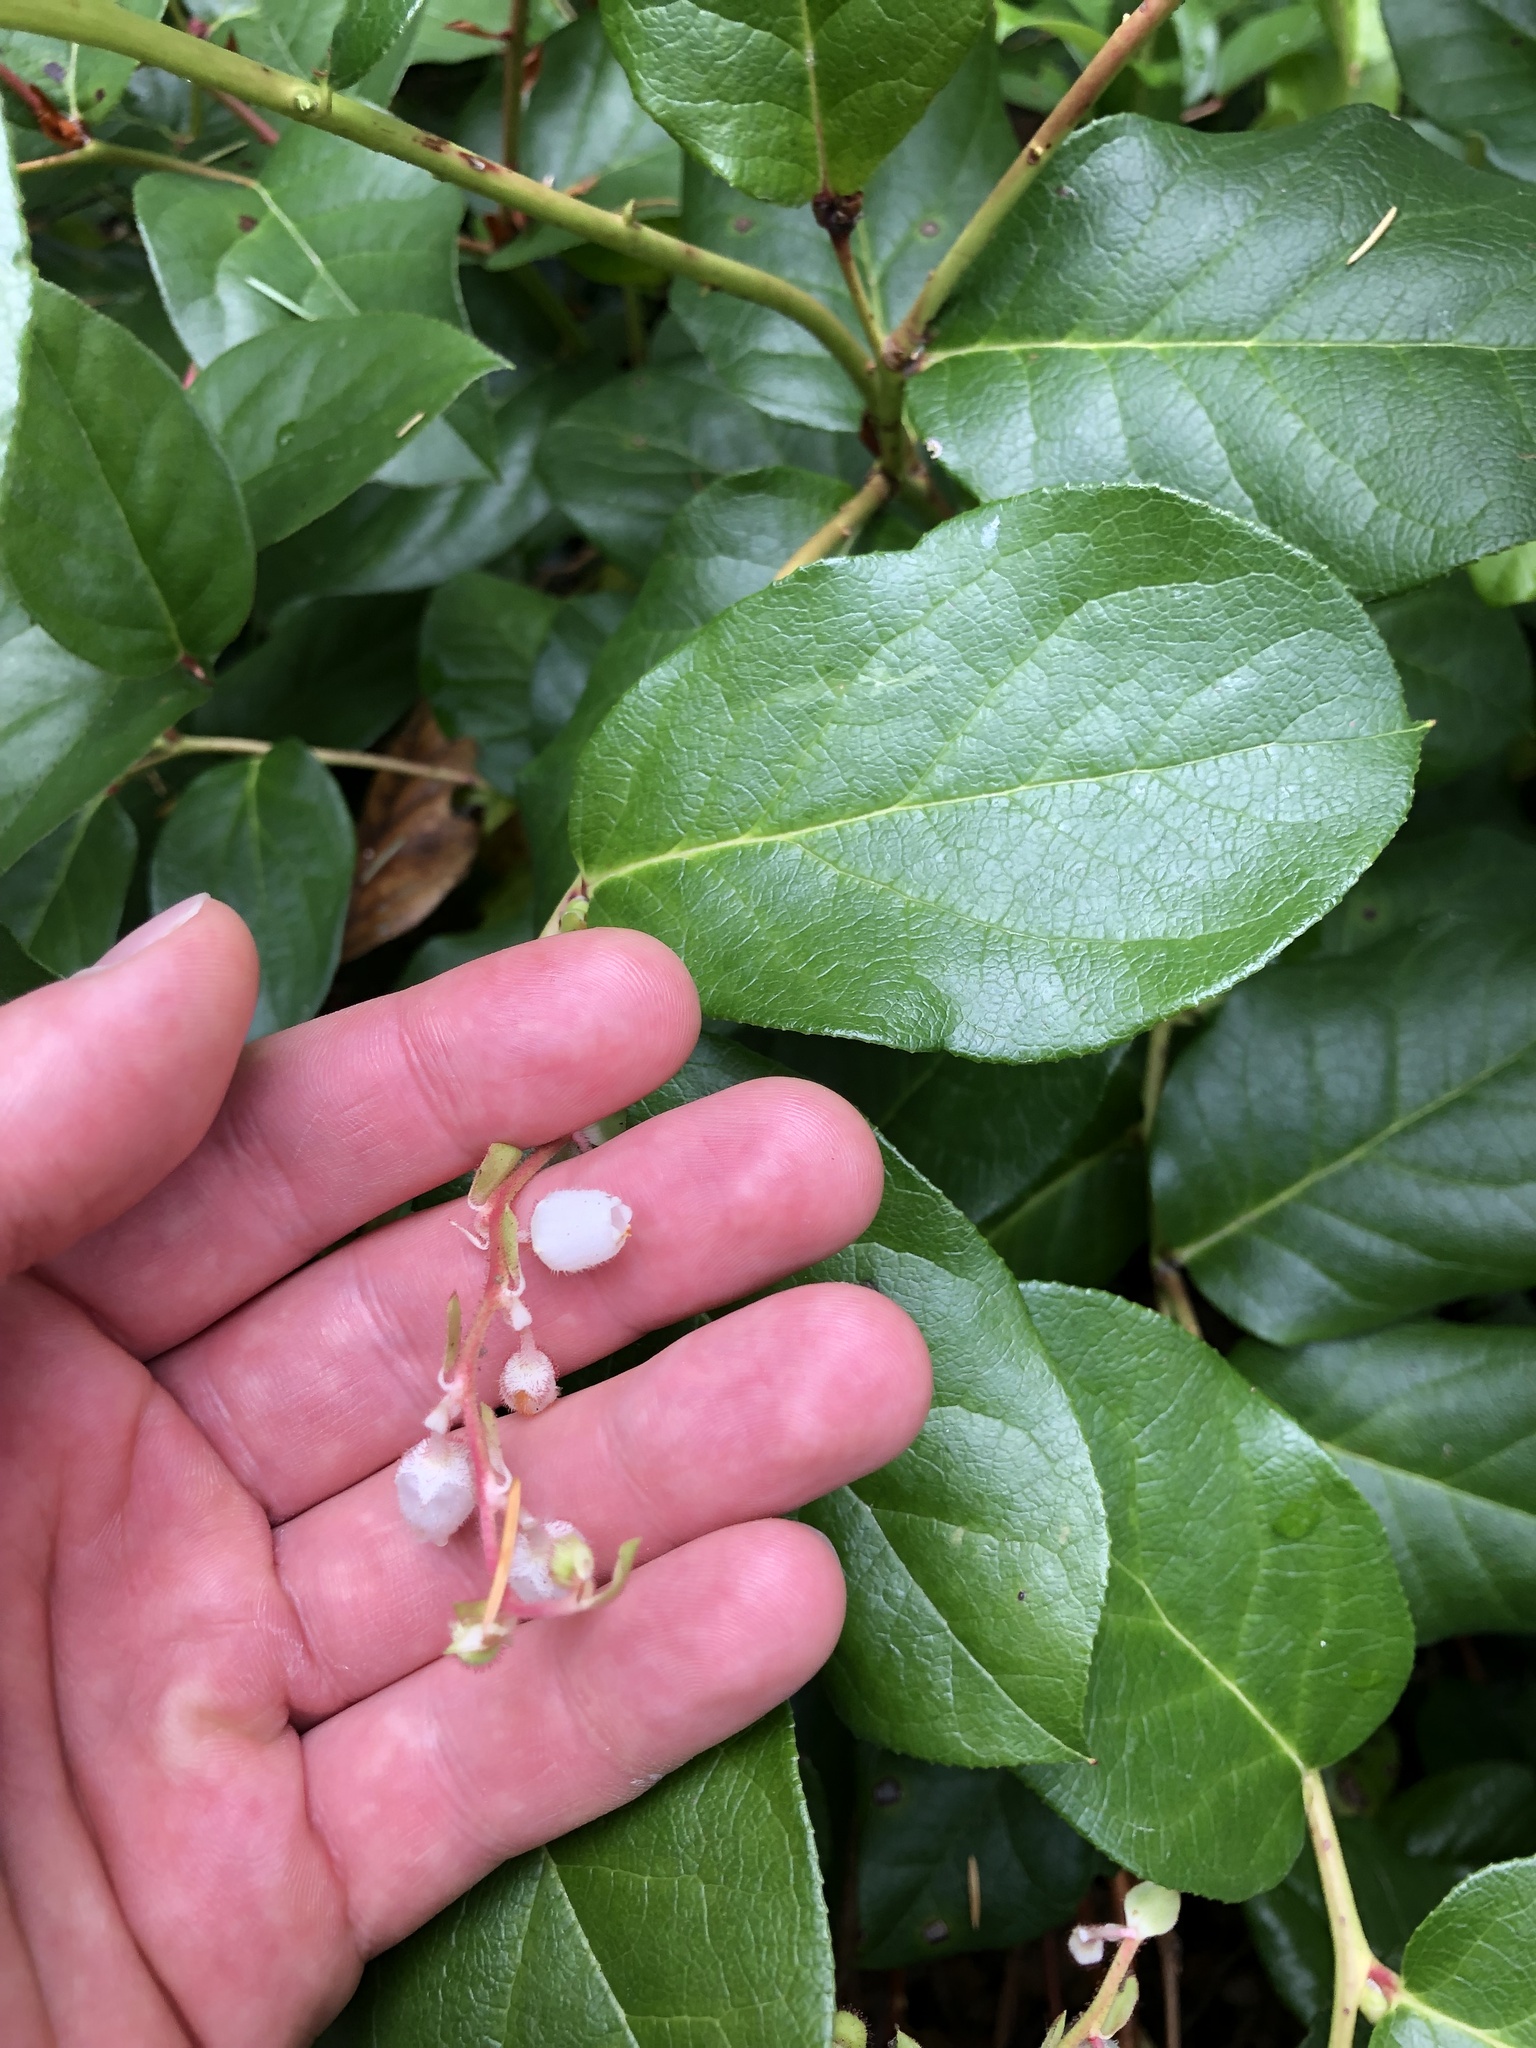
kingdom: Plantae
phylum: Tracheophyta
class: Magnoliopsida
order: Ericales
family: Ericaceae
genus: Gaultheria
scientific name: Gaultheria shallon
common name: Shallon
